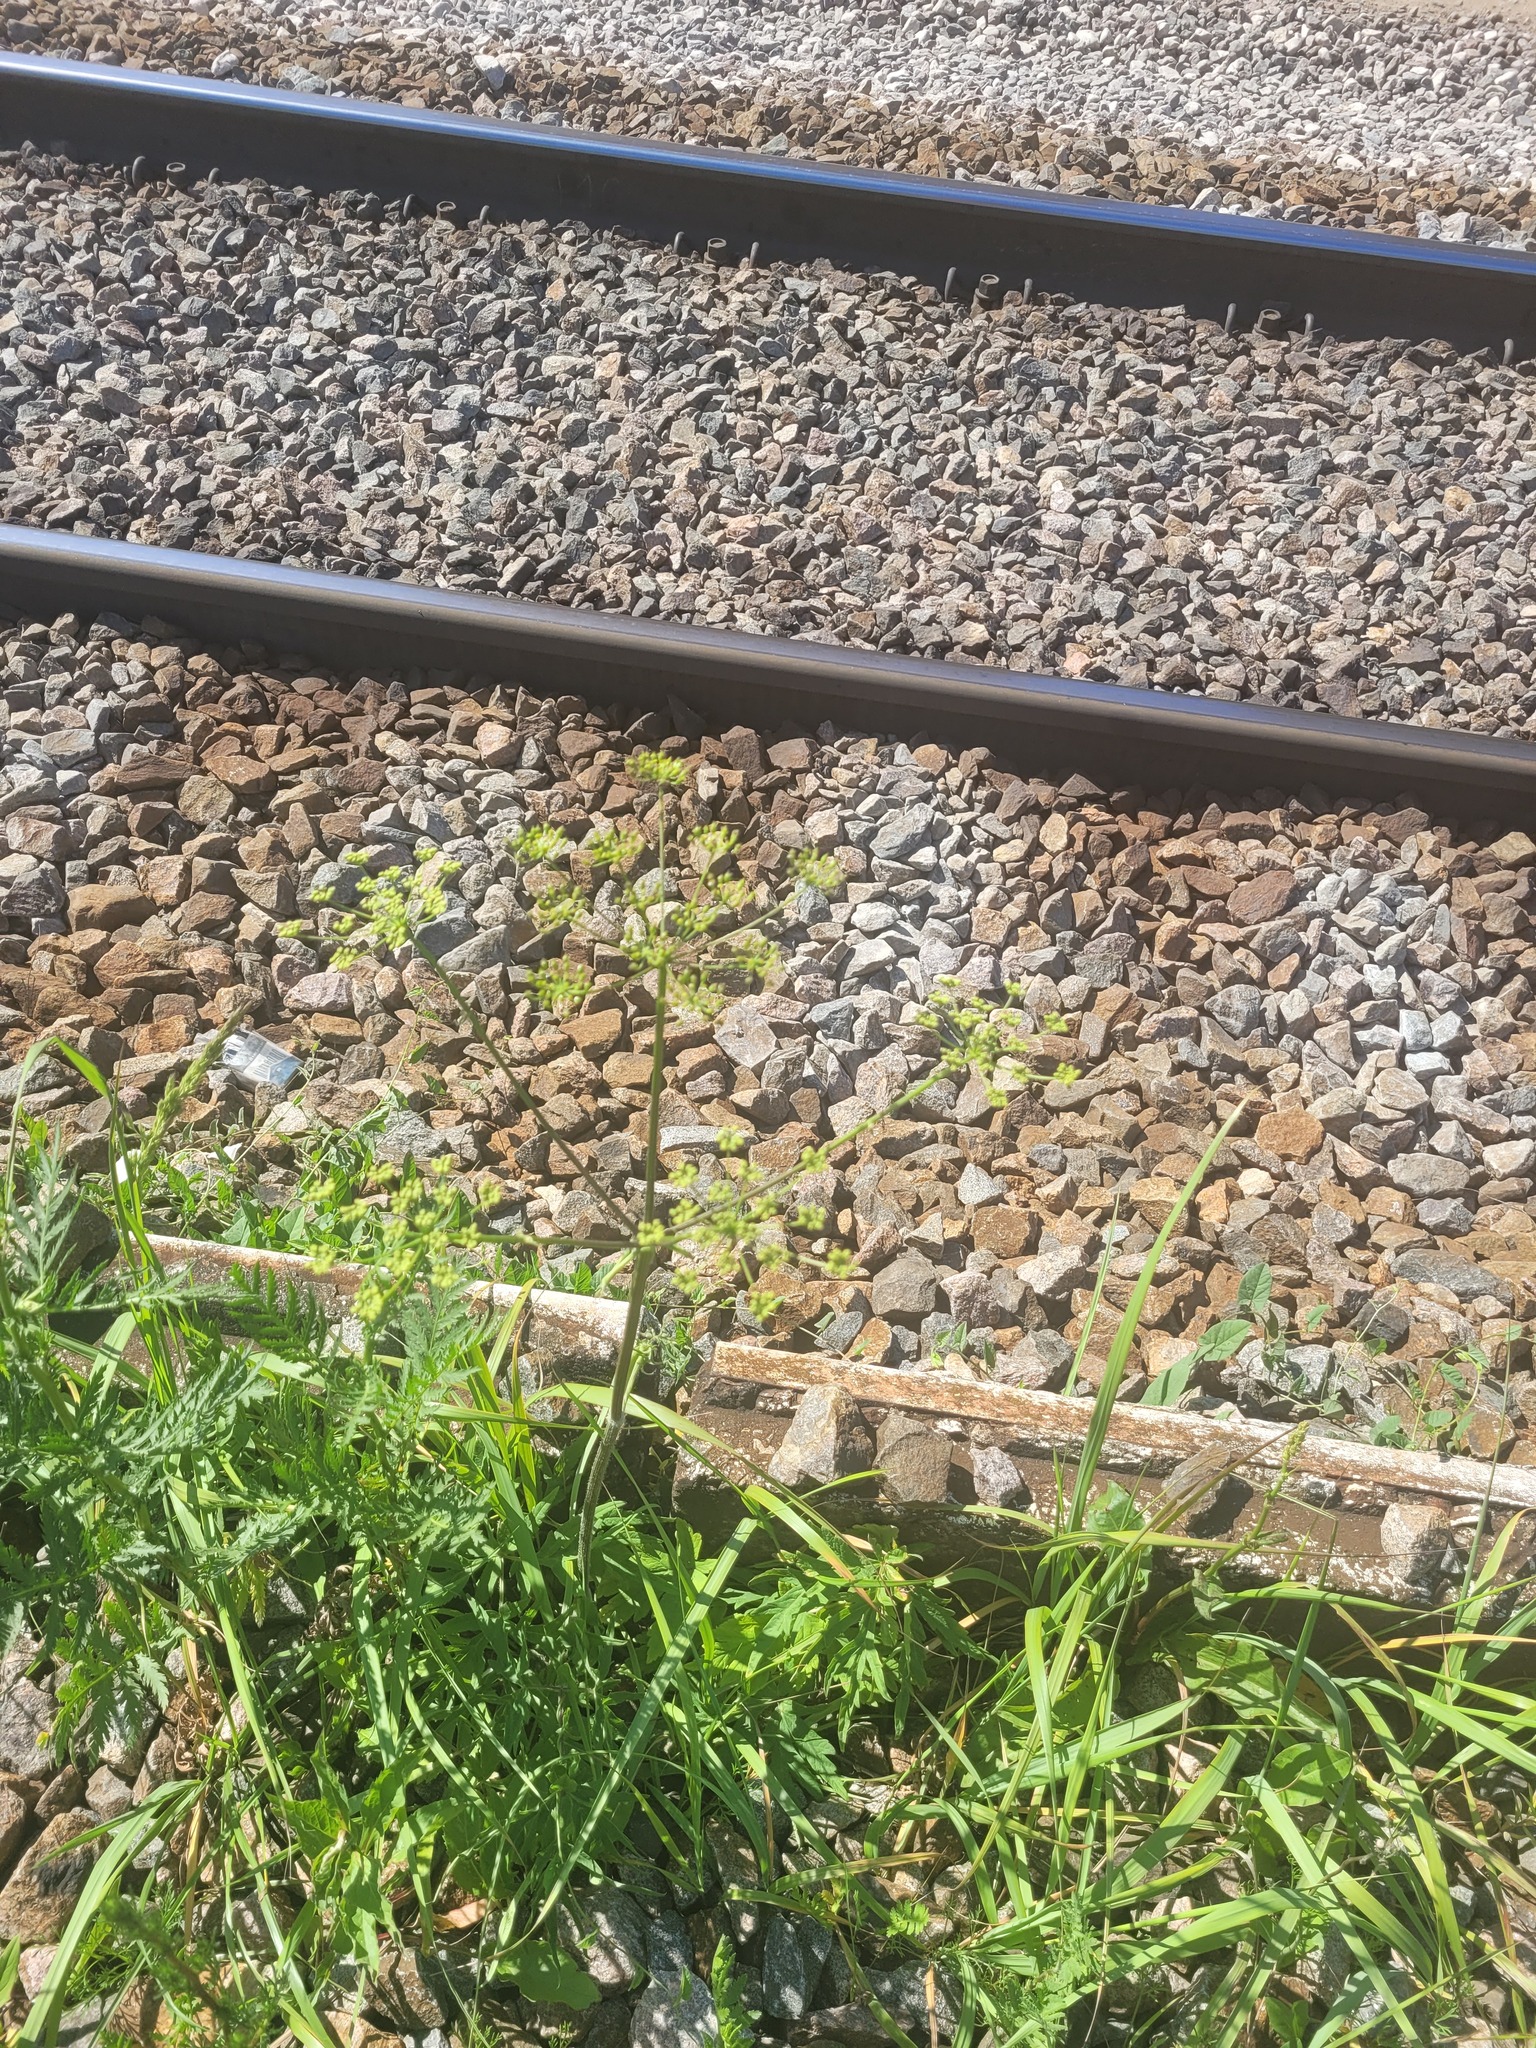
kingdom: Plantae
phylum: Tracheophyta
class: Magnoliopsida
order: Apiales
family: Apiaceae
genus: Heracleum
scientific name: Heracleum sphondylium
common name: Hogweed
